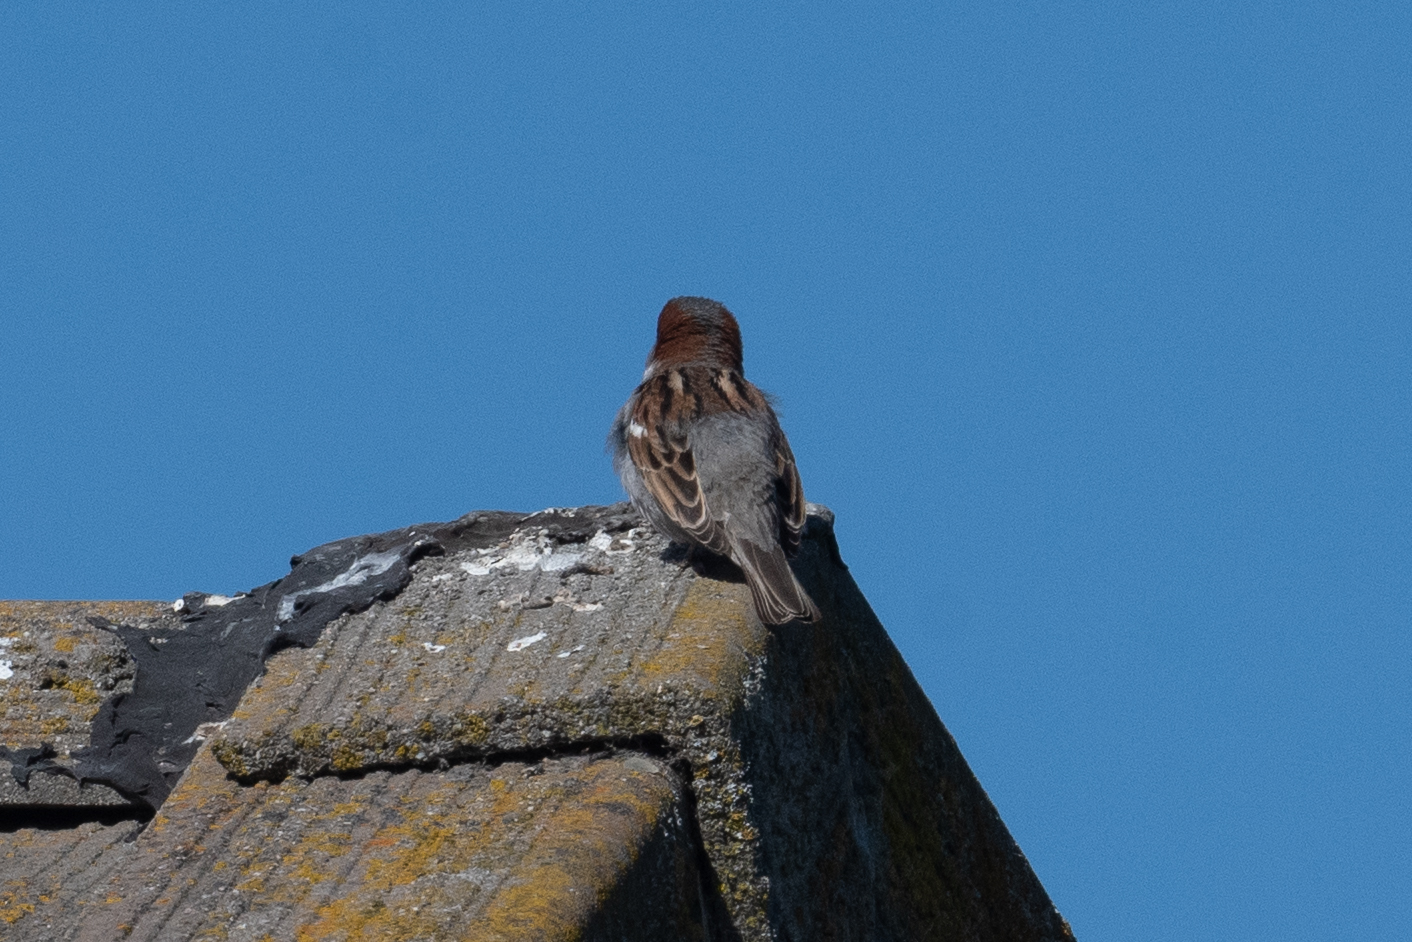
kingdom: Animalia
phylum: Chordata
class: Aves
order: Passeriformes
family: Passeridae
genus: Passer
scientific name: Passer domesticus
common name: House sparrow
